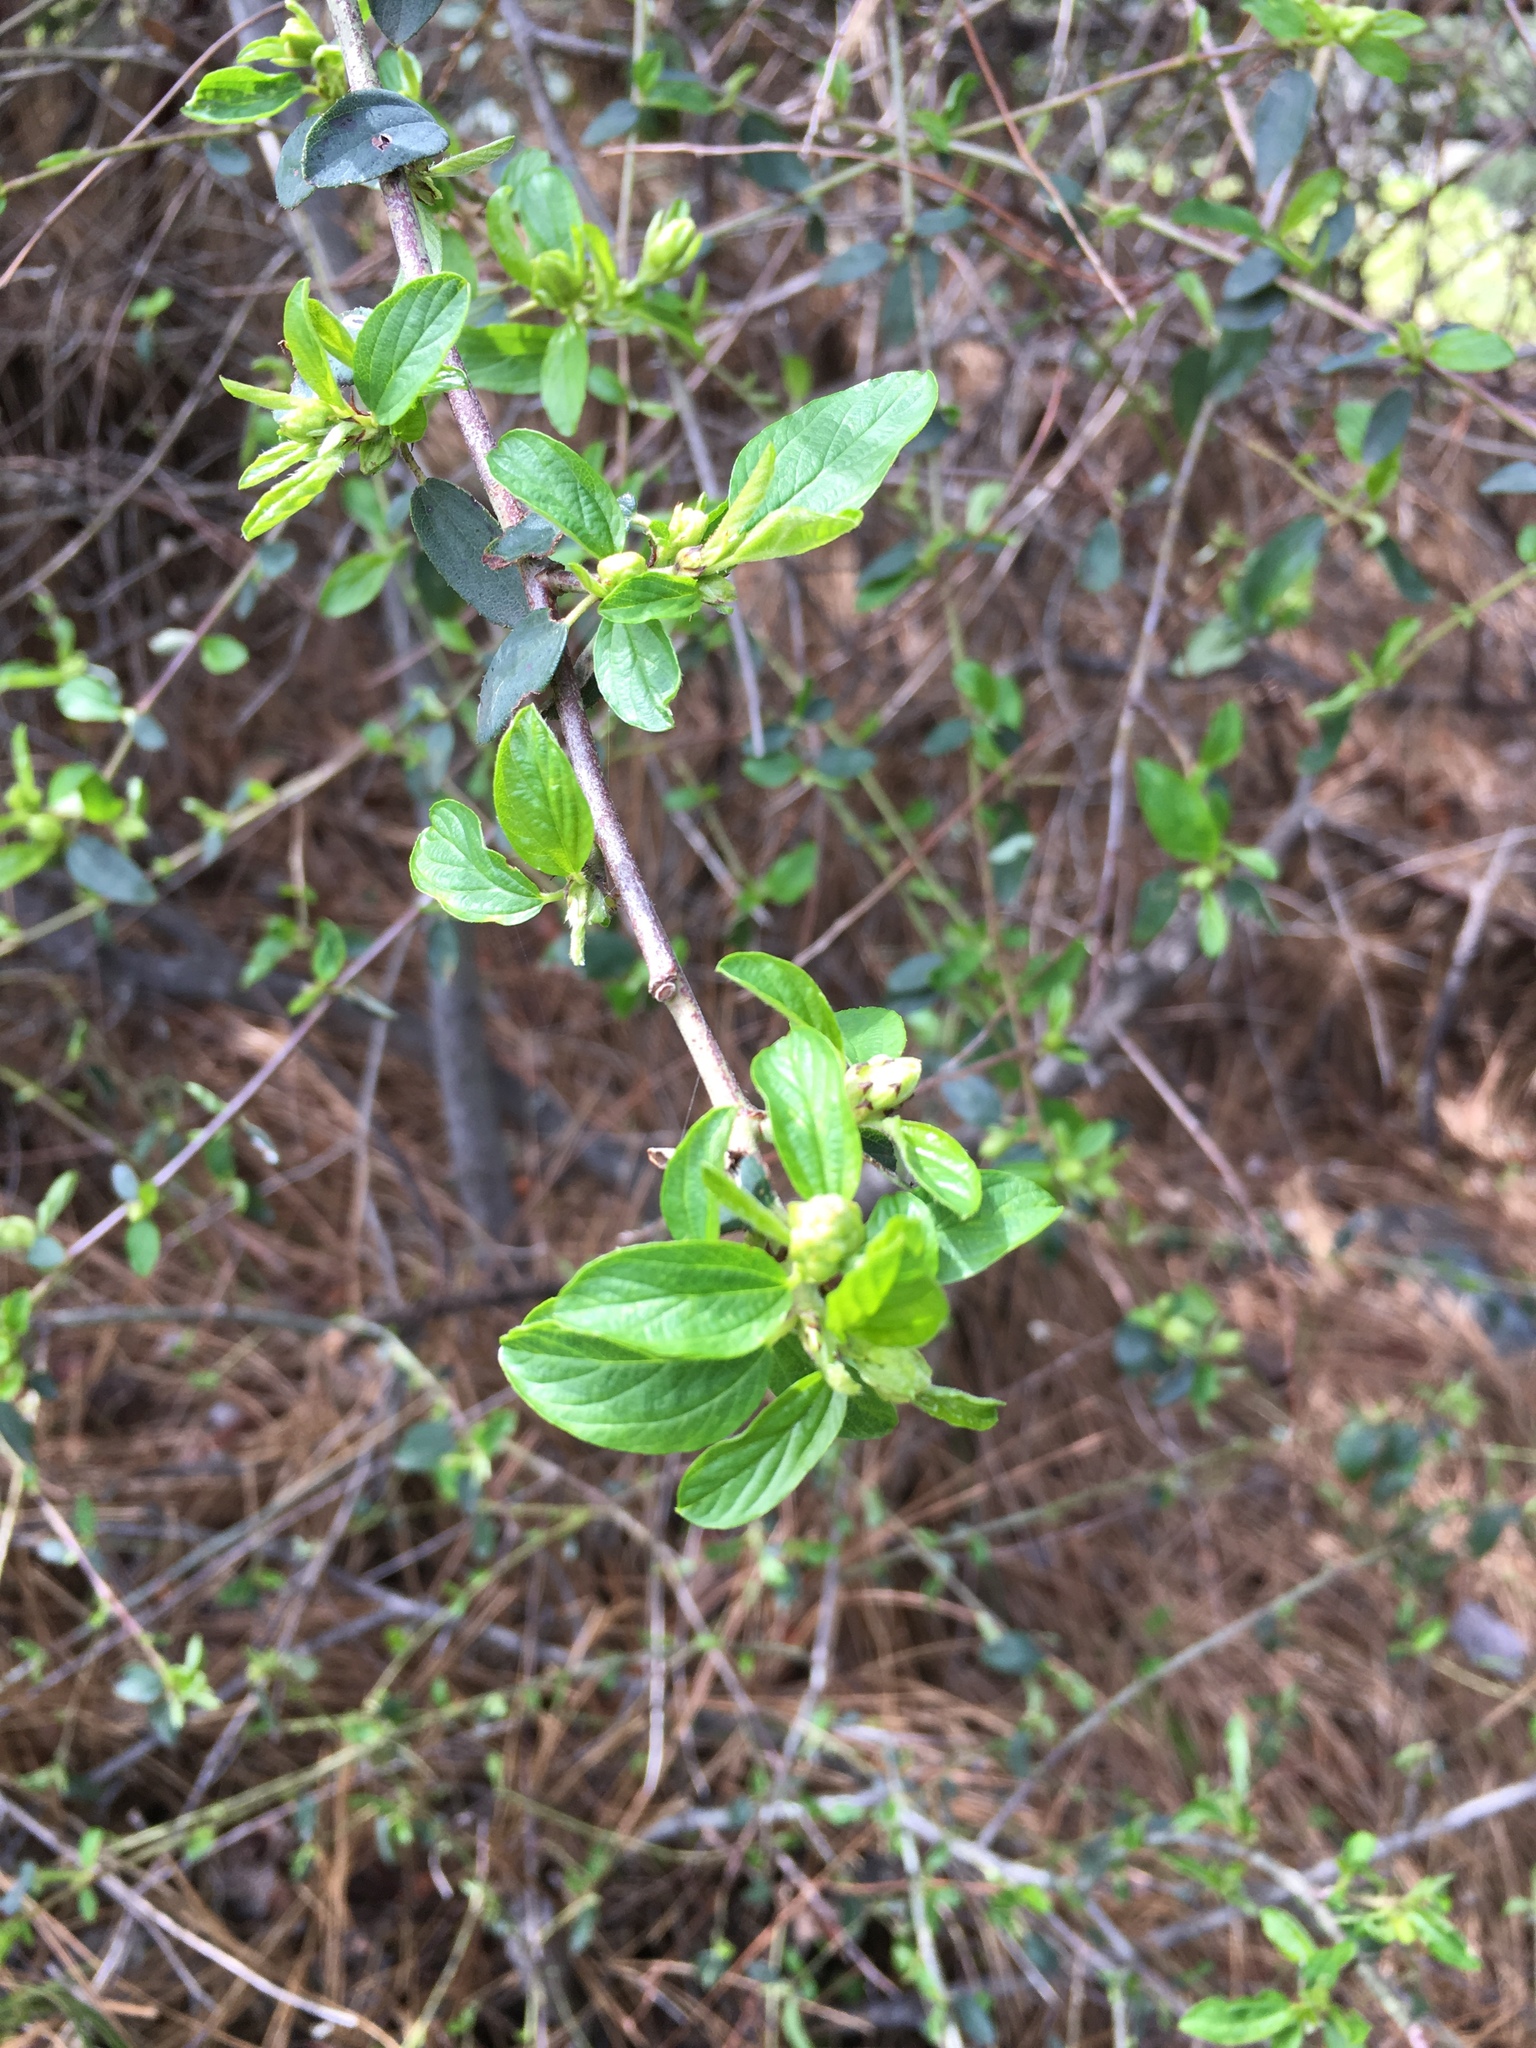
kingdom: Plantae
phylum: Tracheophyta
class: Magnoliopsida
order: Rosales
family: Rhamnaceae
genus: Ceanothus
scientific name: Ceanothus integerrimus
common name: Deerbrush ceanothus
